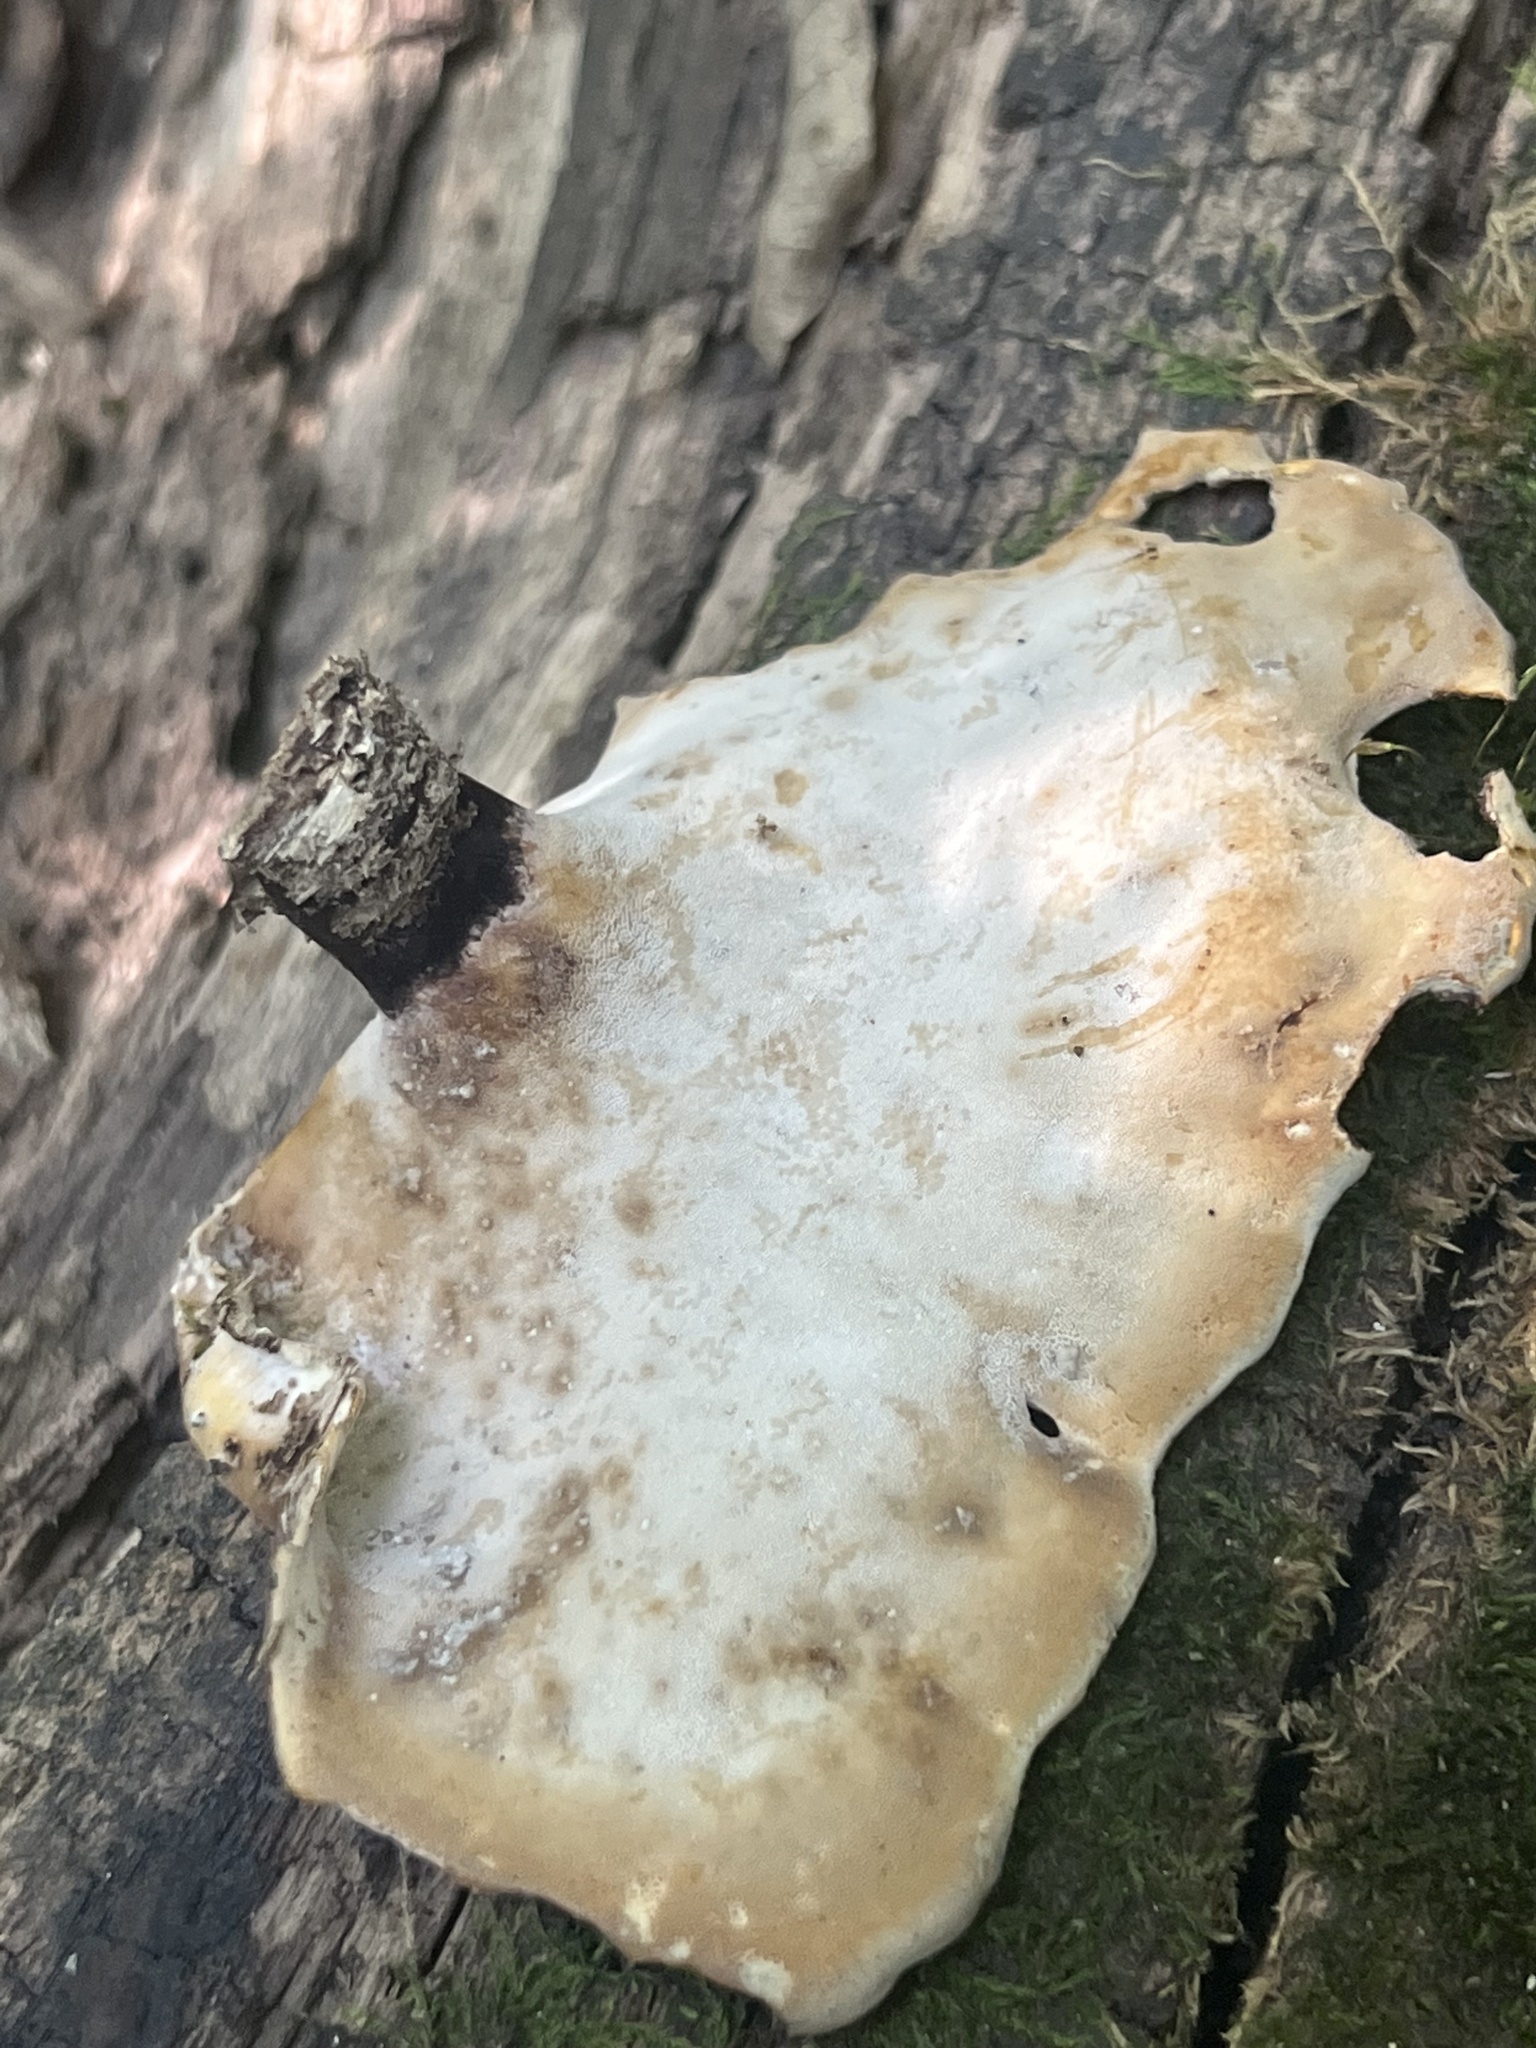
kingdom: Fungi
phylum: Basidiomycota
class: Agaricomycetes
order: Polyporales
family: Polyporaceae
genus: Picipes
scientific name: Picipes badius
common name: Bay polypore
